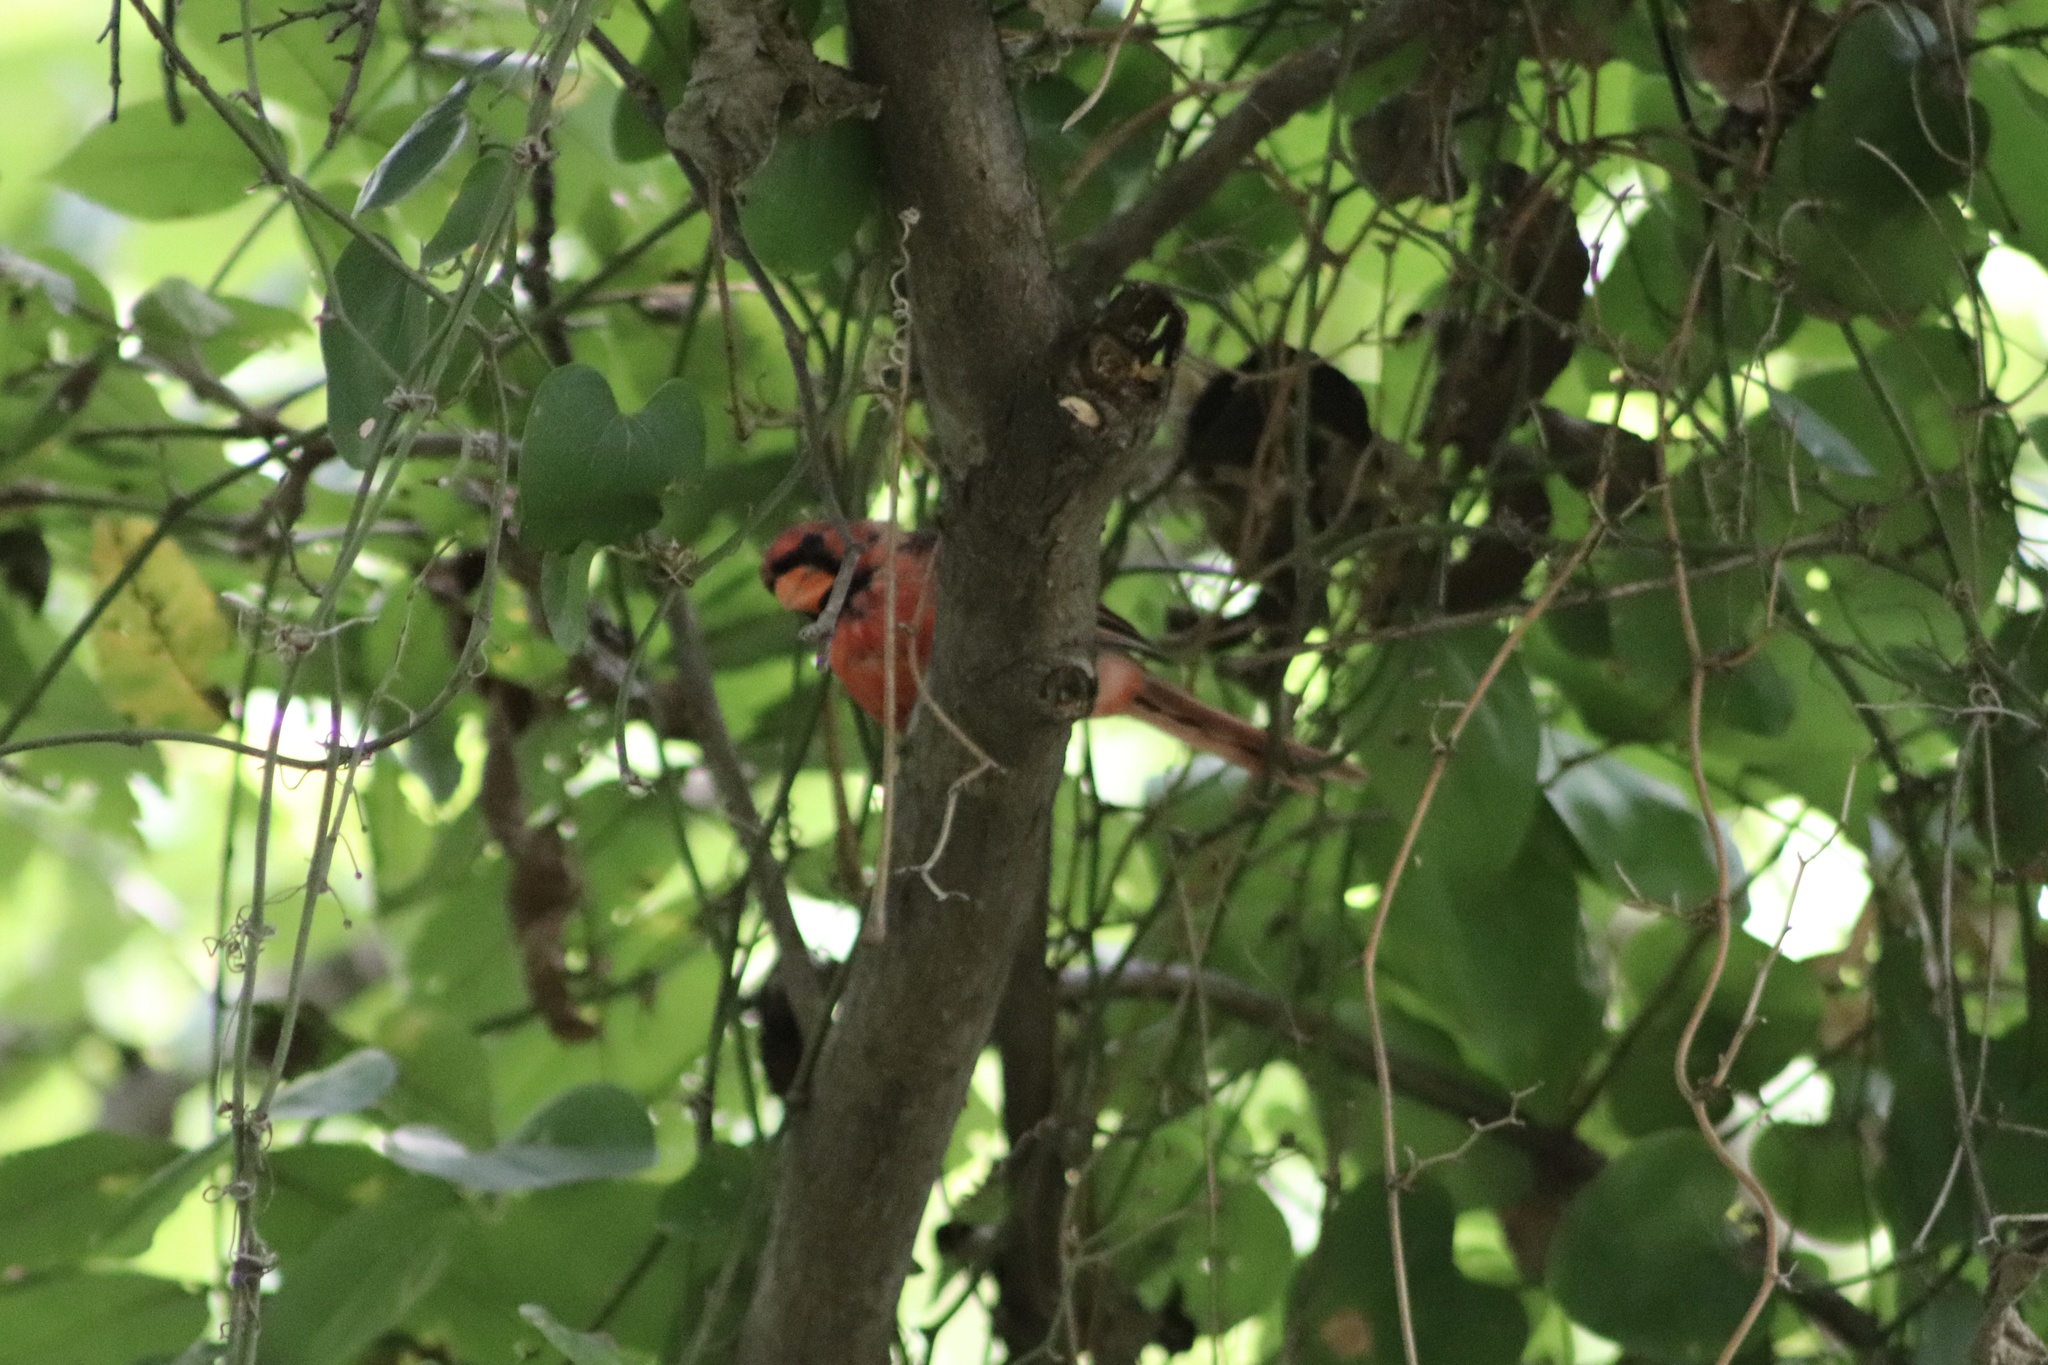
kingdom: Animalia
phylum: Chordata
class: Aves
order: Passeriformes
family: Cardinalidae
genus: Cardinalis
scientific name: Cardinalis cardinalis
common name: Northern cardinal
